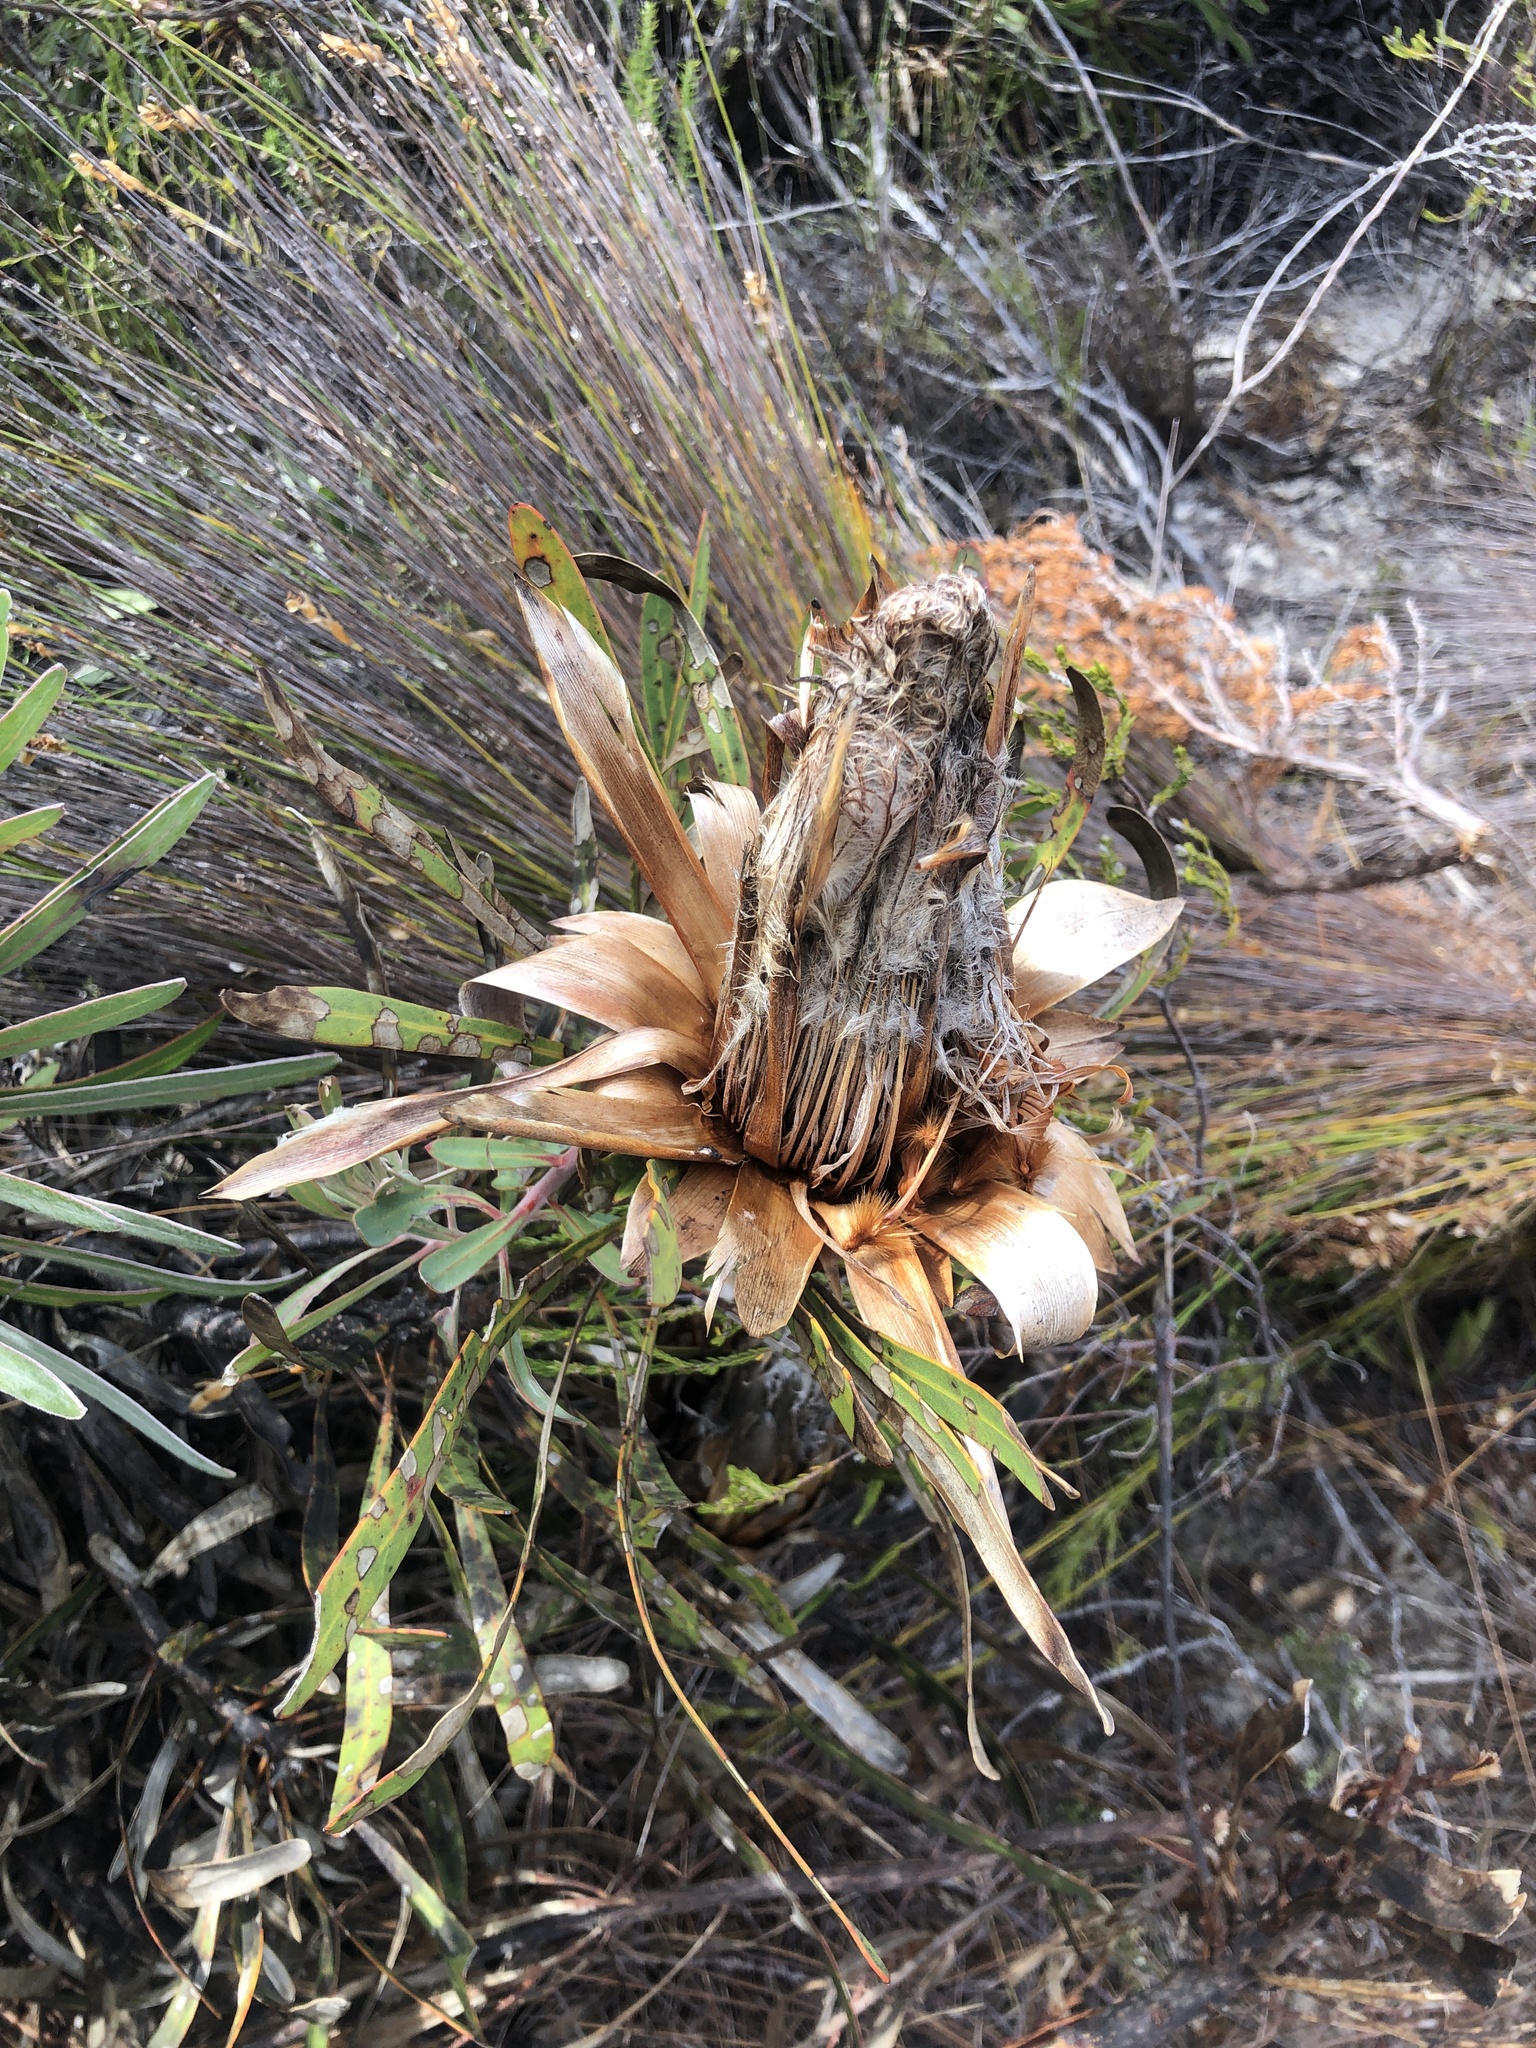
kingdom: Plantae
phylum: Tracheophyta
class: Magnoliopsida
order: Proteales
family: Proteaceae
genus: Protea
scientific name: Protea susannae
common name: Foetid-leaf sugarbush
